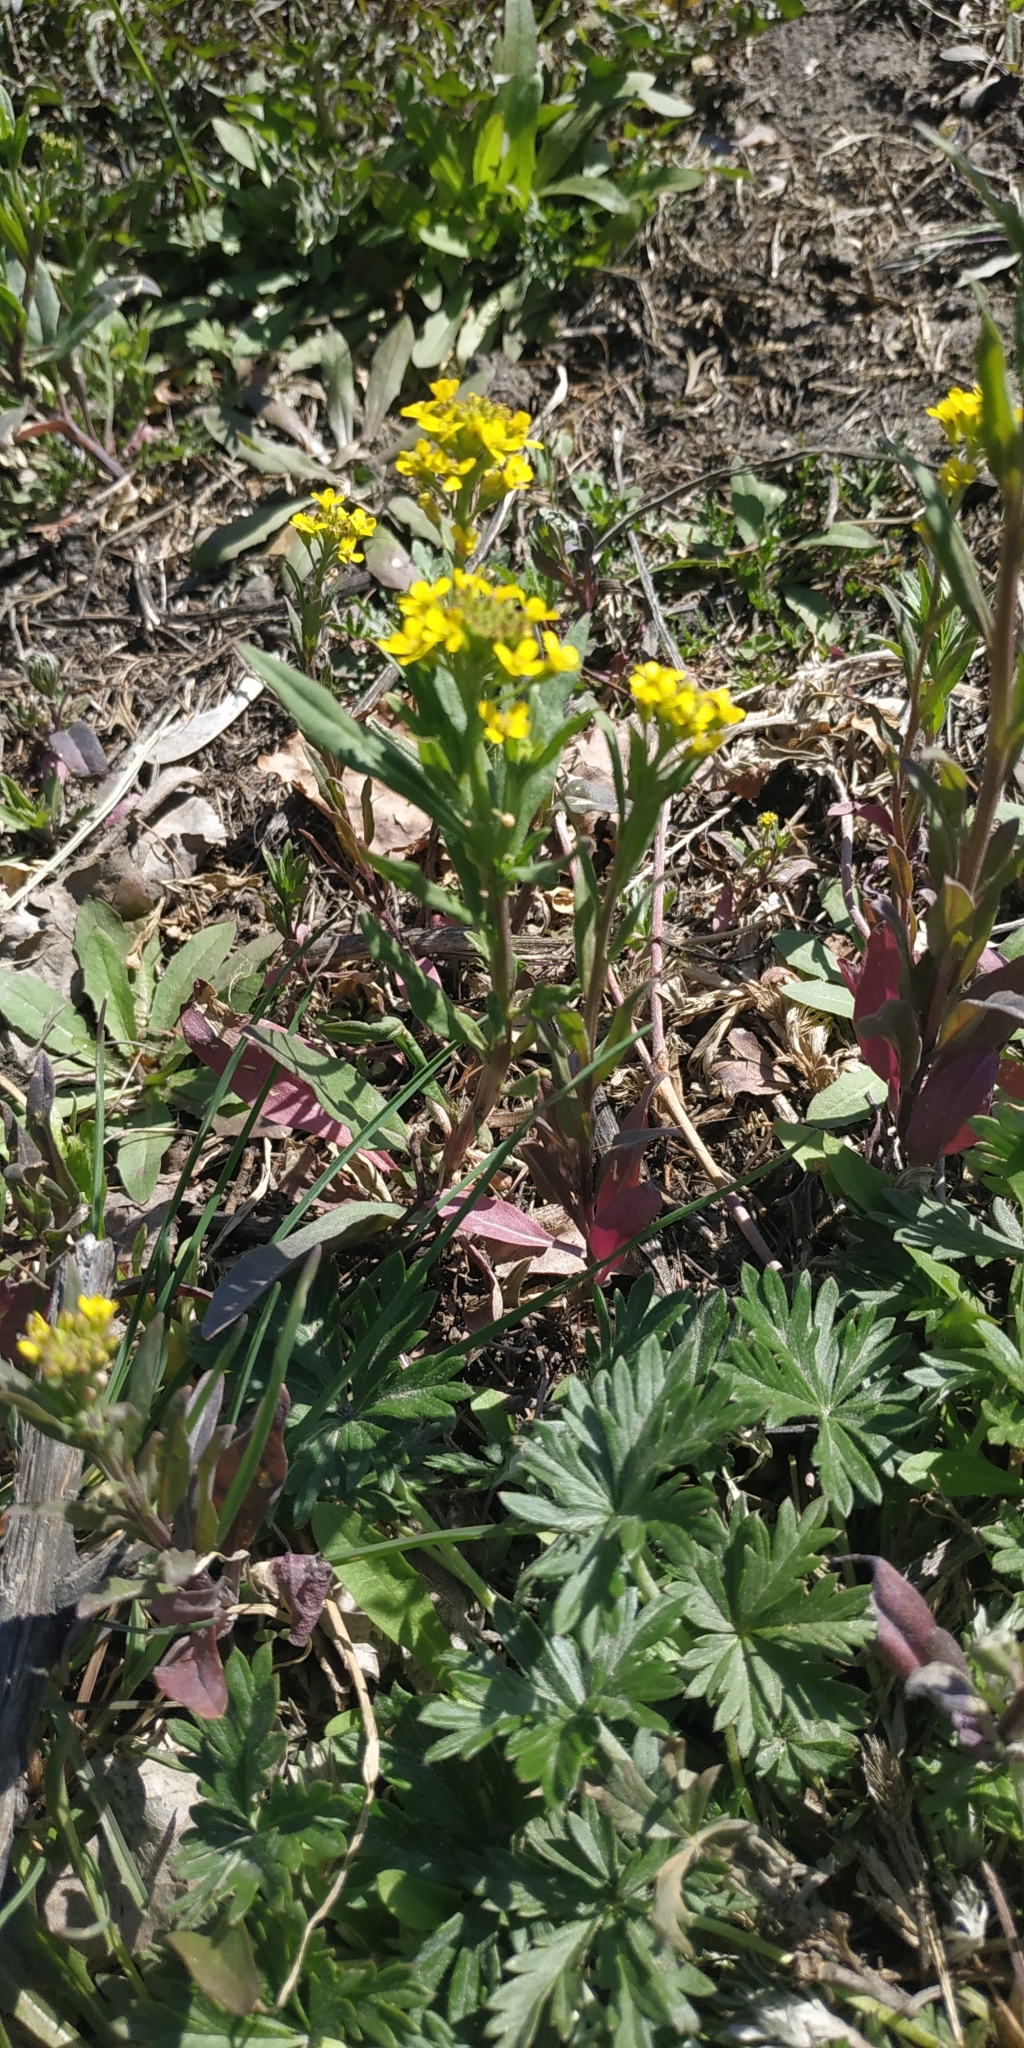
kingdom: Plantae
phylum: Tracheophyta
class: Magnoliopsida
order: Brassicales
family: Brassicaceae
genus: Erysimum
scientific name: Erysimum cheiranthoides
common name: Treacle mustard
